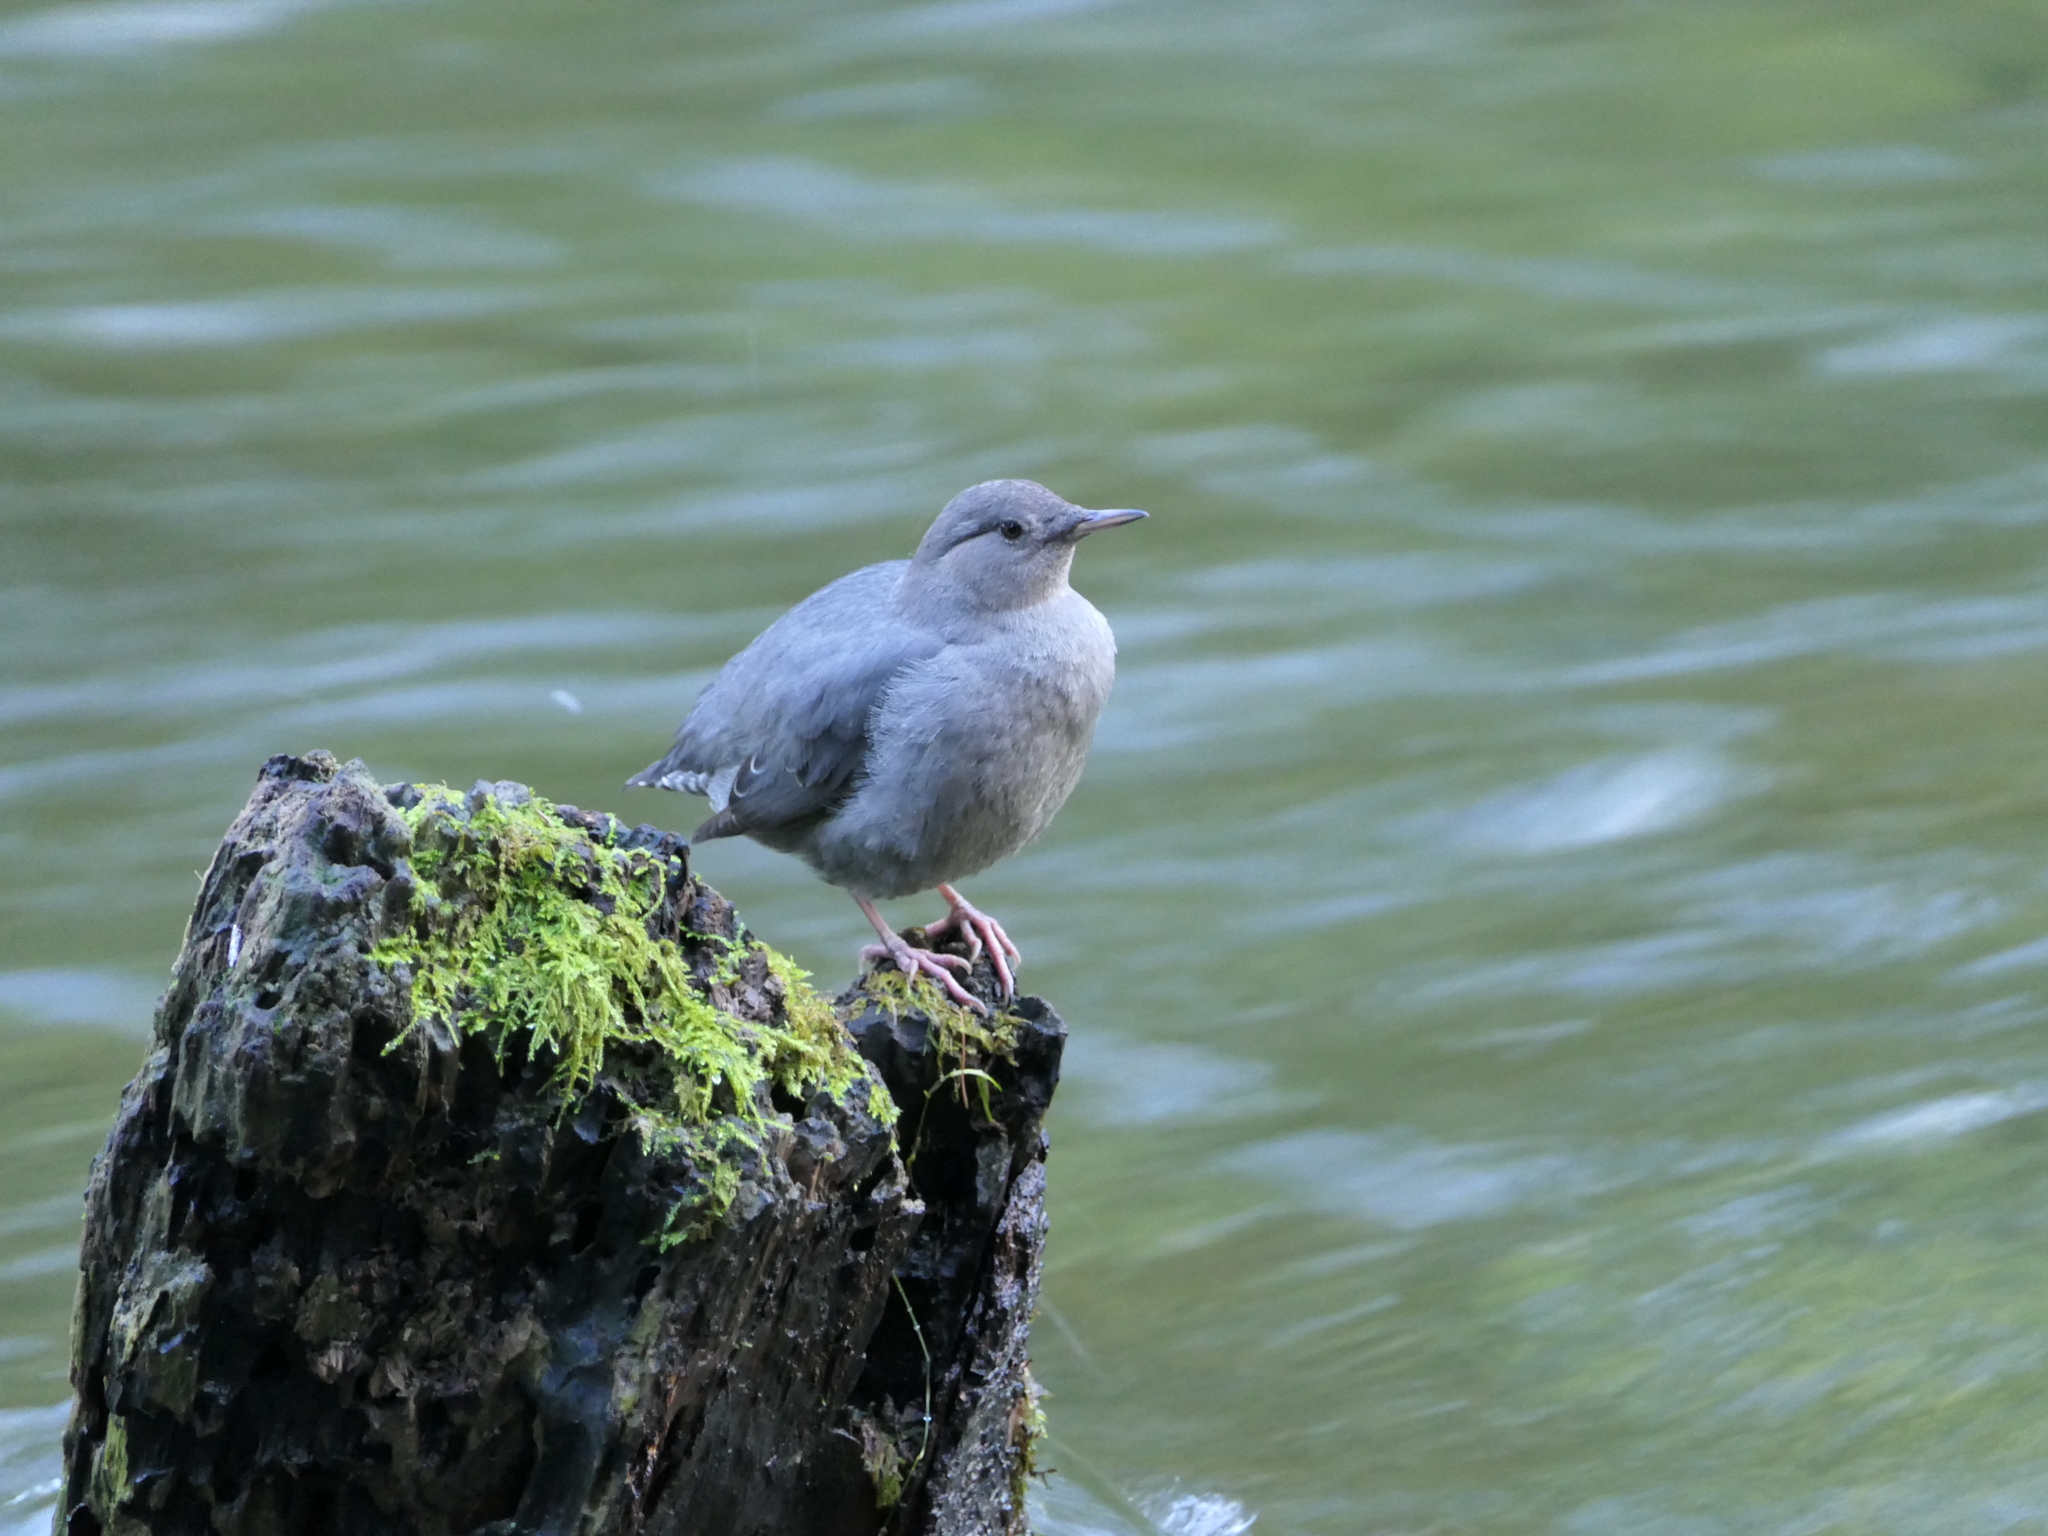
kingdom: Animalia
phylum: Chordata
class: Aves
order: Passeriformes
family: Cinclidae
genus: Cinclus
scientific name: Cinclus mexicanus
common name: American dipper
